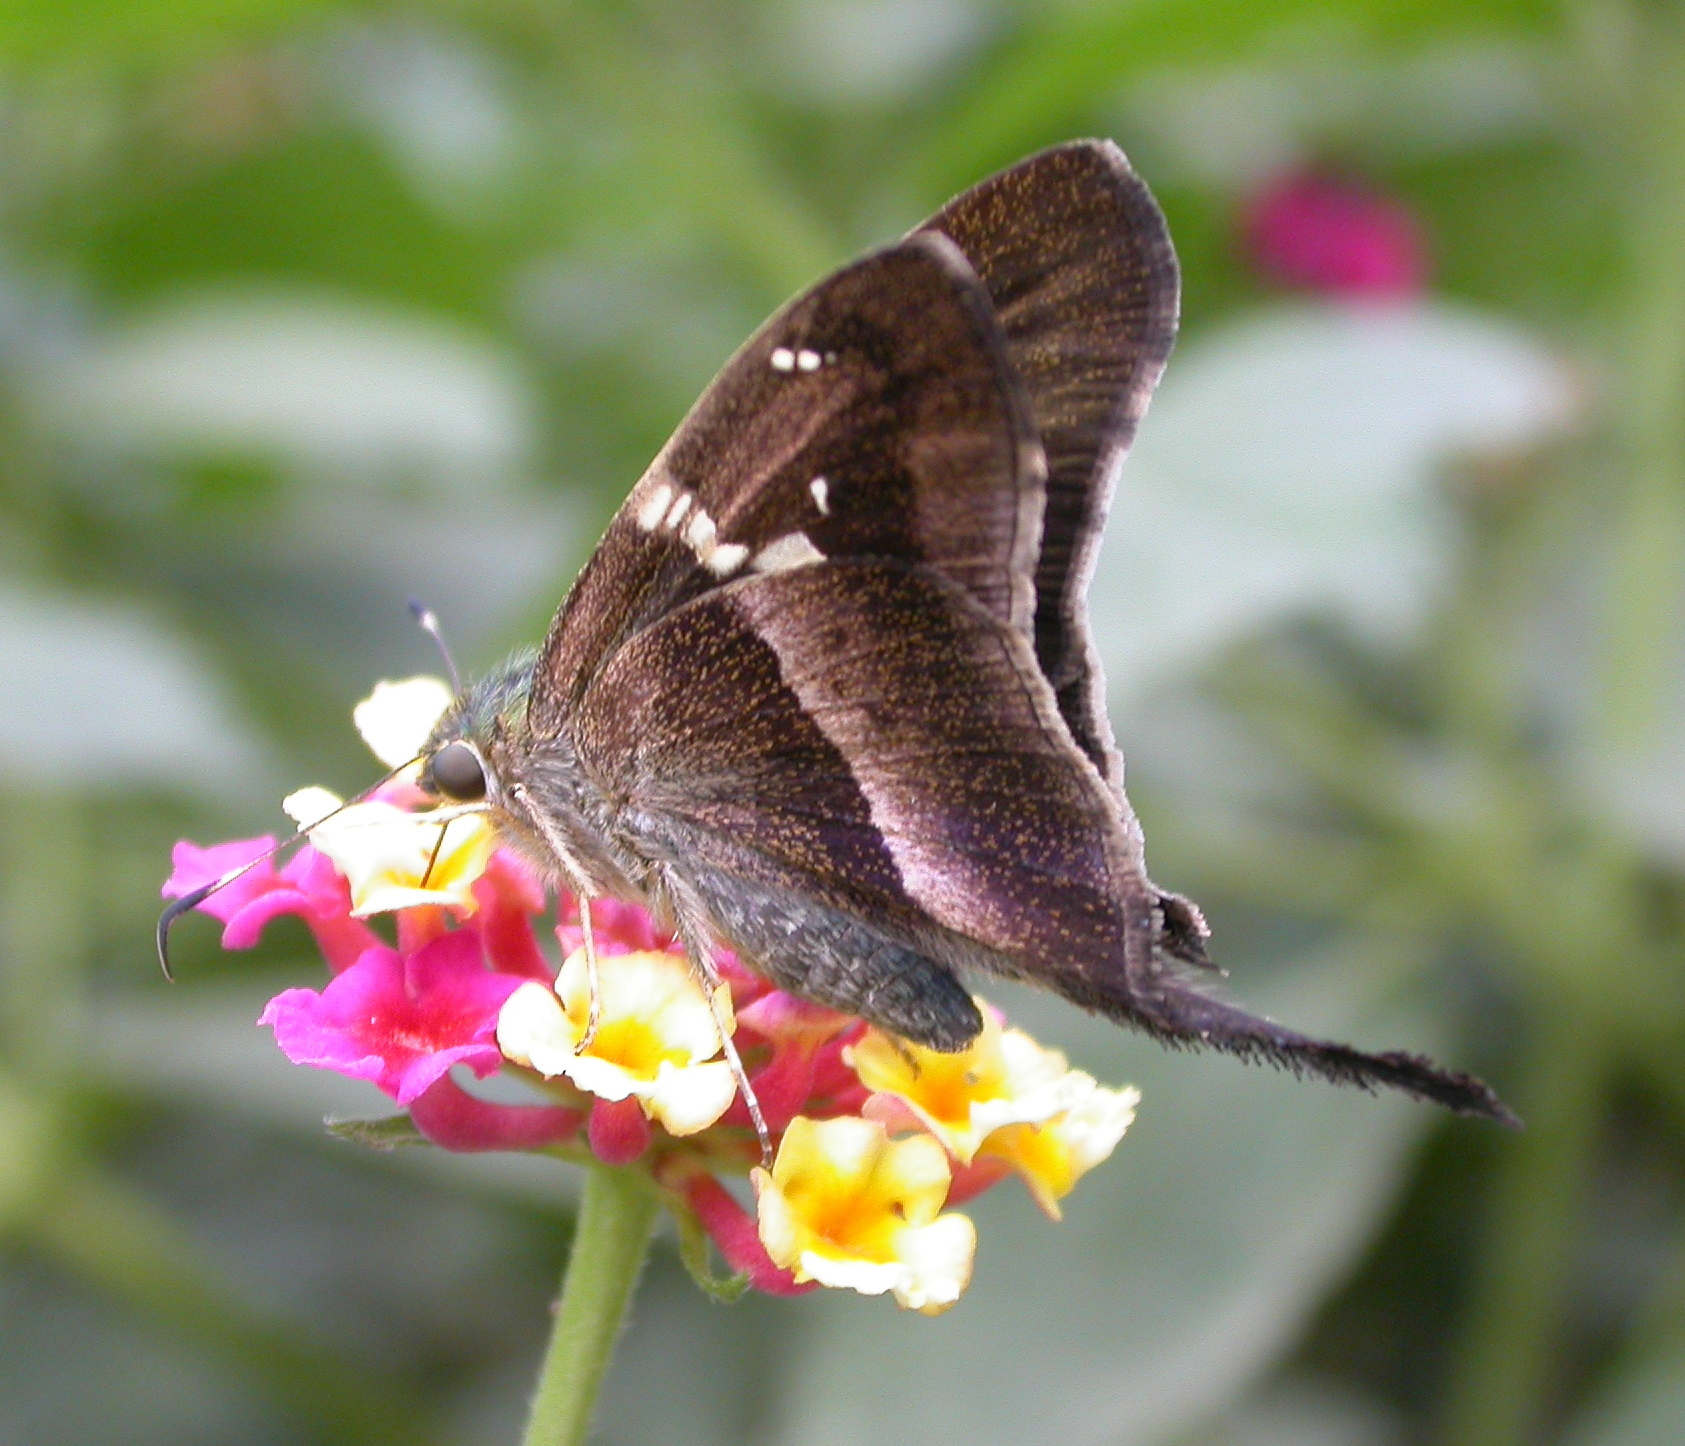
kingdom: Animalia
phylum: Arthropoda
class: Insecta
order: Lepidoptera
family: Hesperiidae
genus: Aguna
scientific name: Aguna metophis
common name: Tailed aguna
